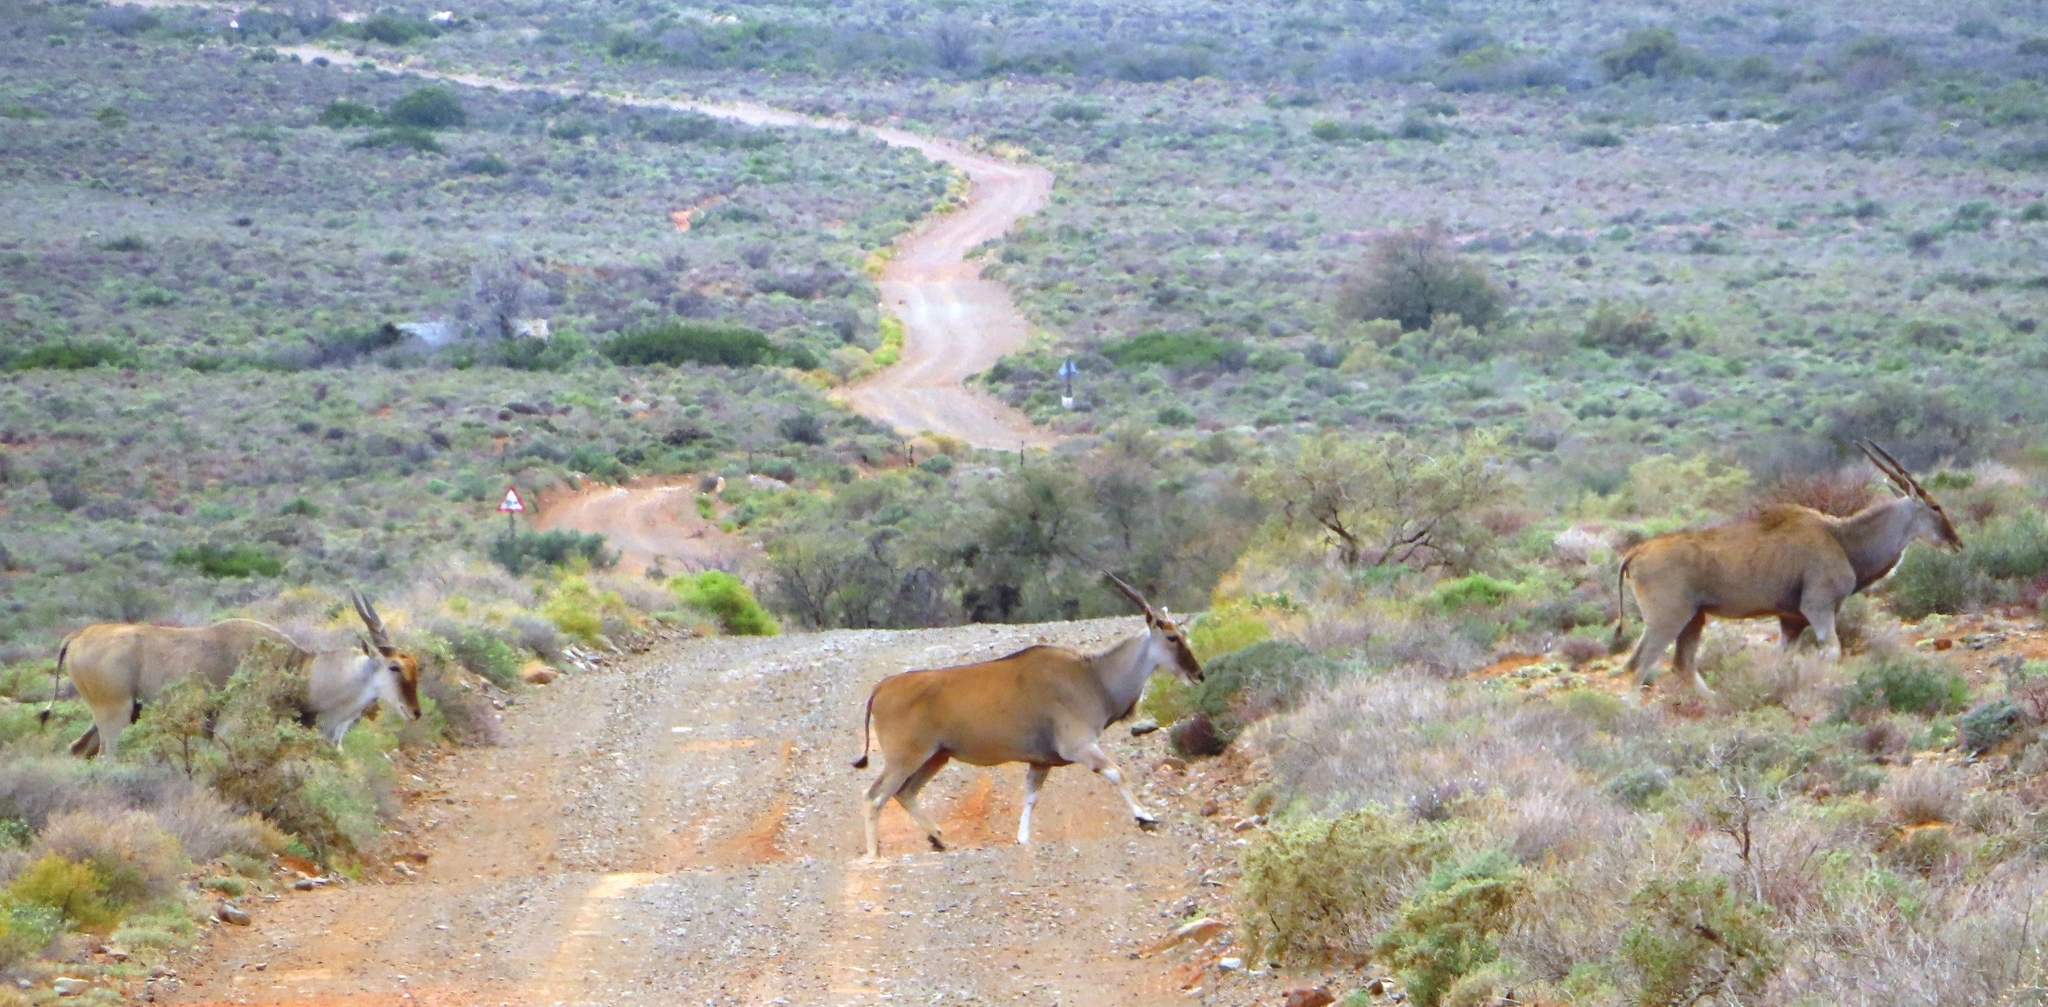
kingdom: Animalia
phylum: Chordata
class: Mammalia
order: Artiodactyla
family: Bovidae
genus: Taurotragus
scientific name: Taurotragus oryx
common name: Common eland
